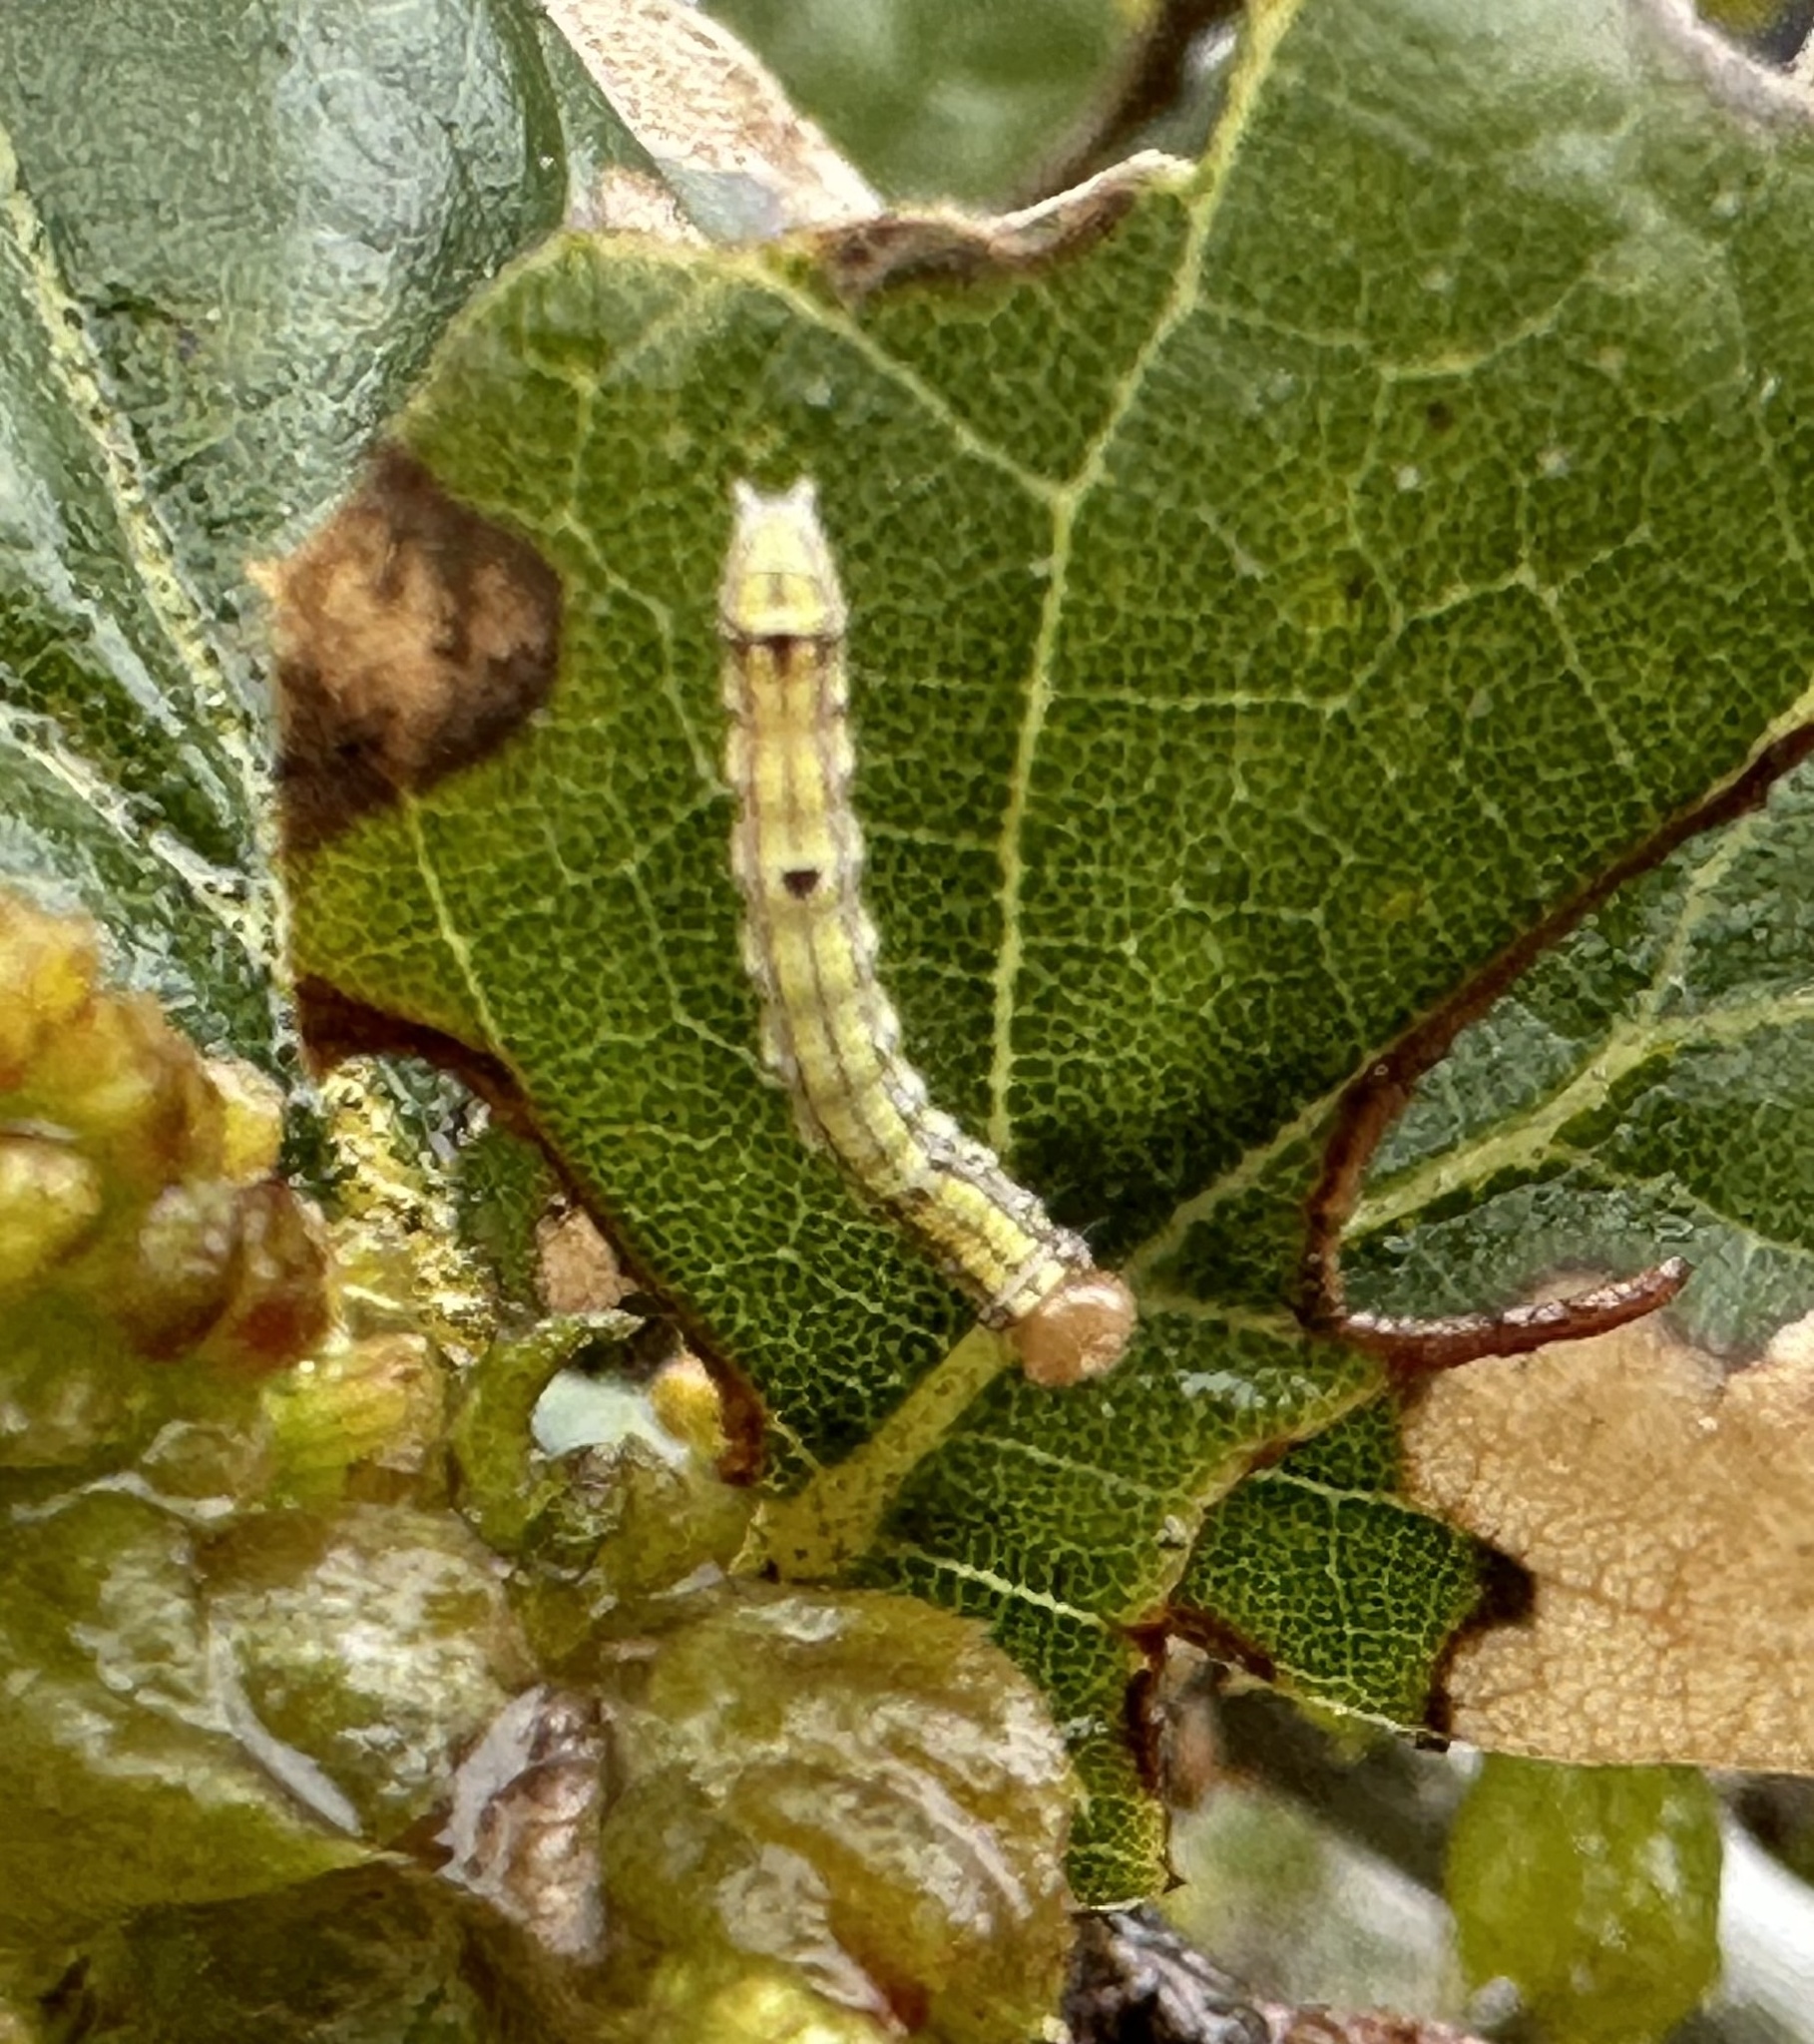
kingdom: Animalia
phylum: Arthropoda
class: Insecta
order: Lepidoptera
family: Notodontidae
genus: Phryganidia
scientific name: Phryganidia californica
